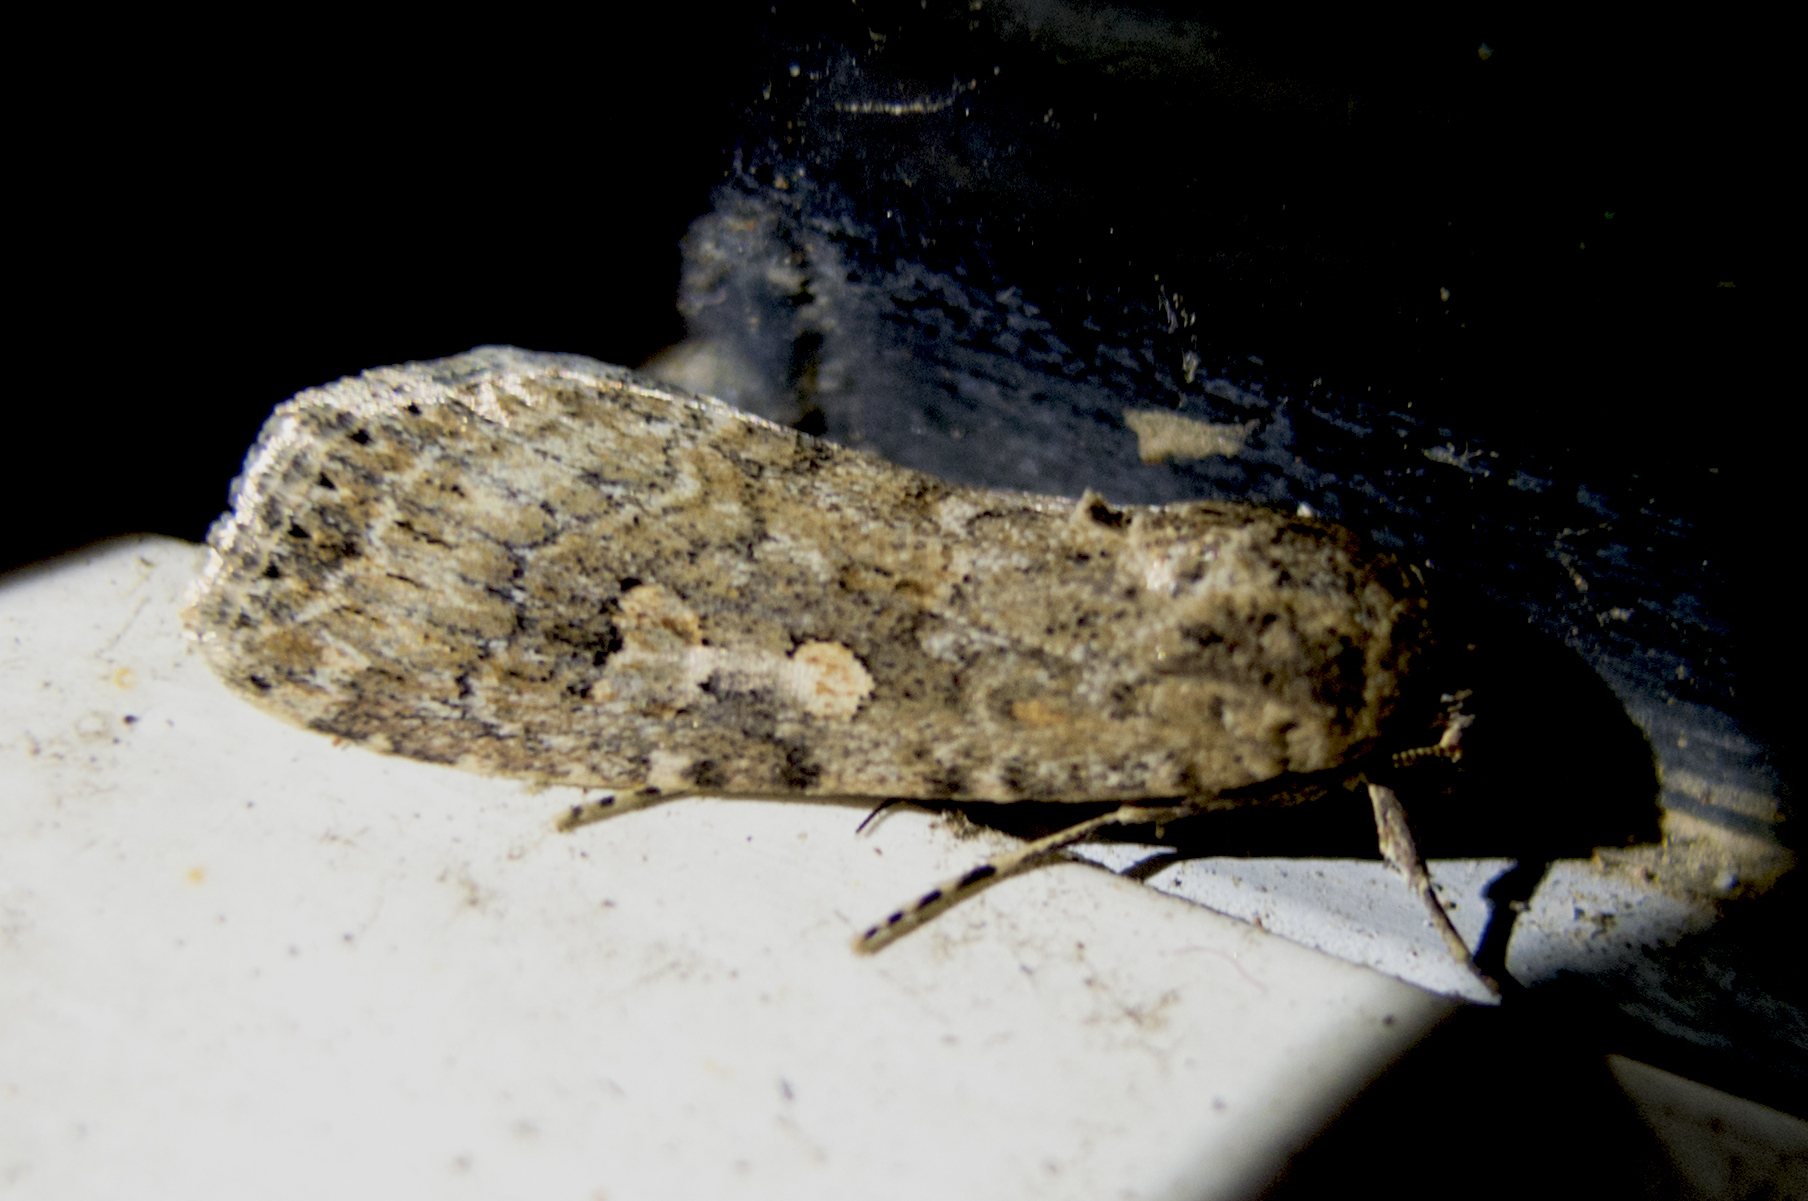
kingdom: Animalia
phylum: Arthropoda
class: Insecta
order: Lepidoptera
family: Noctuidae
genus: Spodoptera
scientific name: Spodoptera exigua
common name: Beet armyworm
